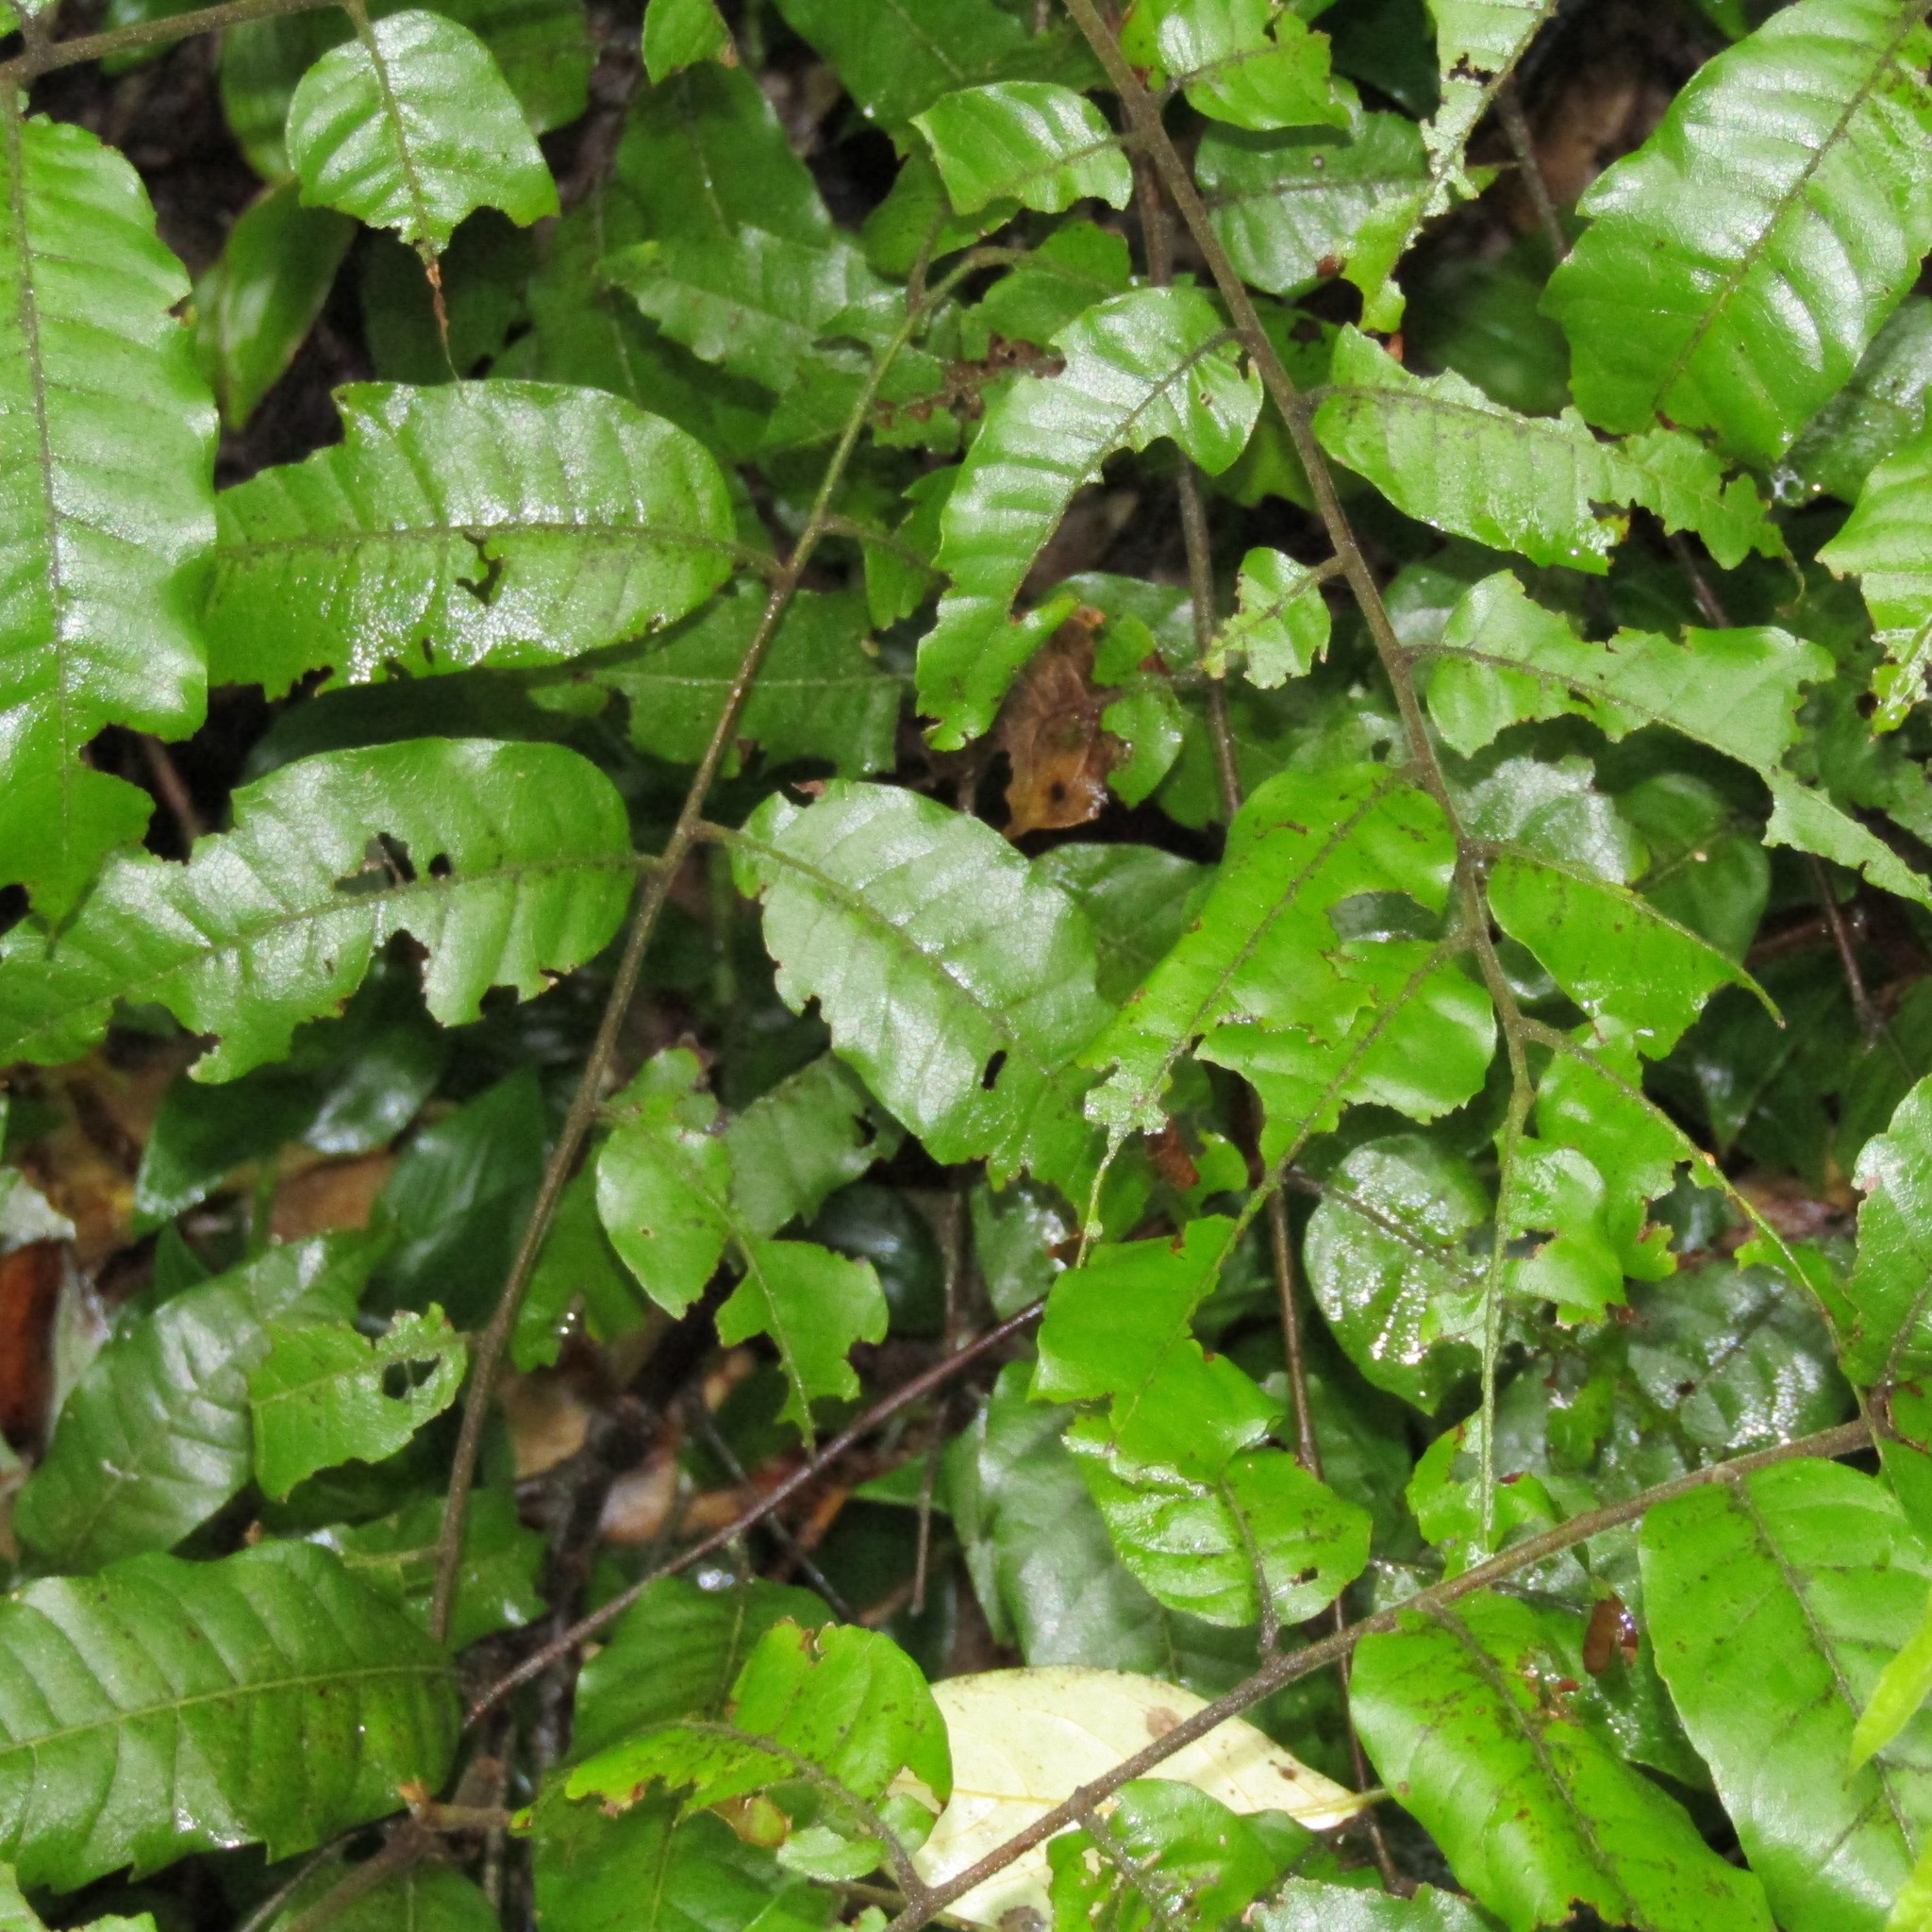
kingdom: Plantae
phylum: Tracheophyta
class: Magnoliopsida
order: Sapindales
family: Sapindaceae
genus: Alectryon
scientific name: Alectryon excelsus
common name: Three kings titoki
